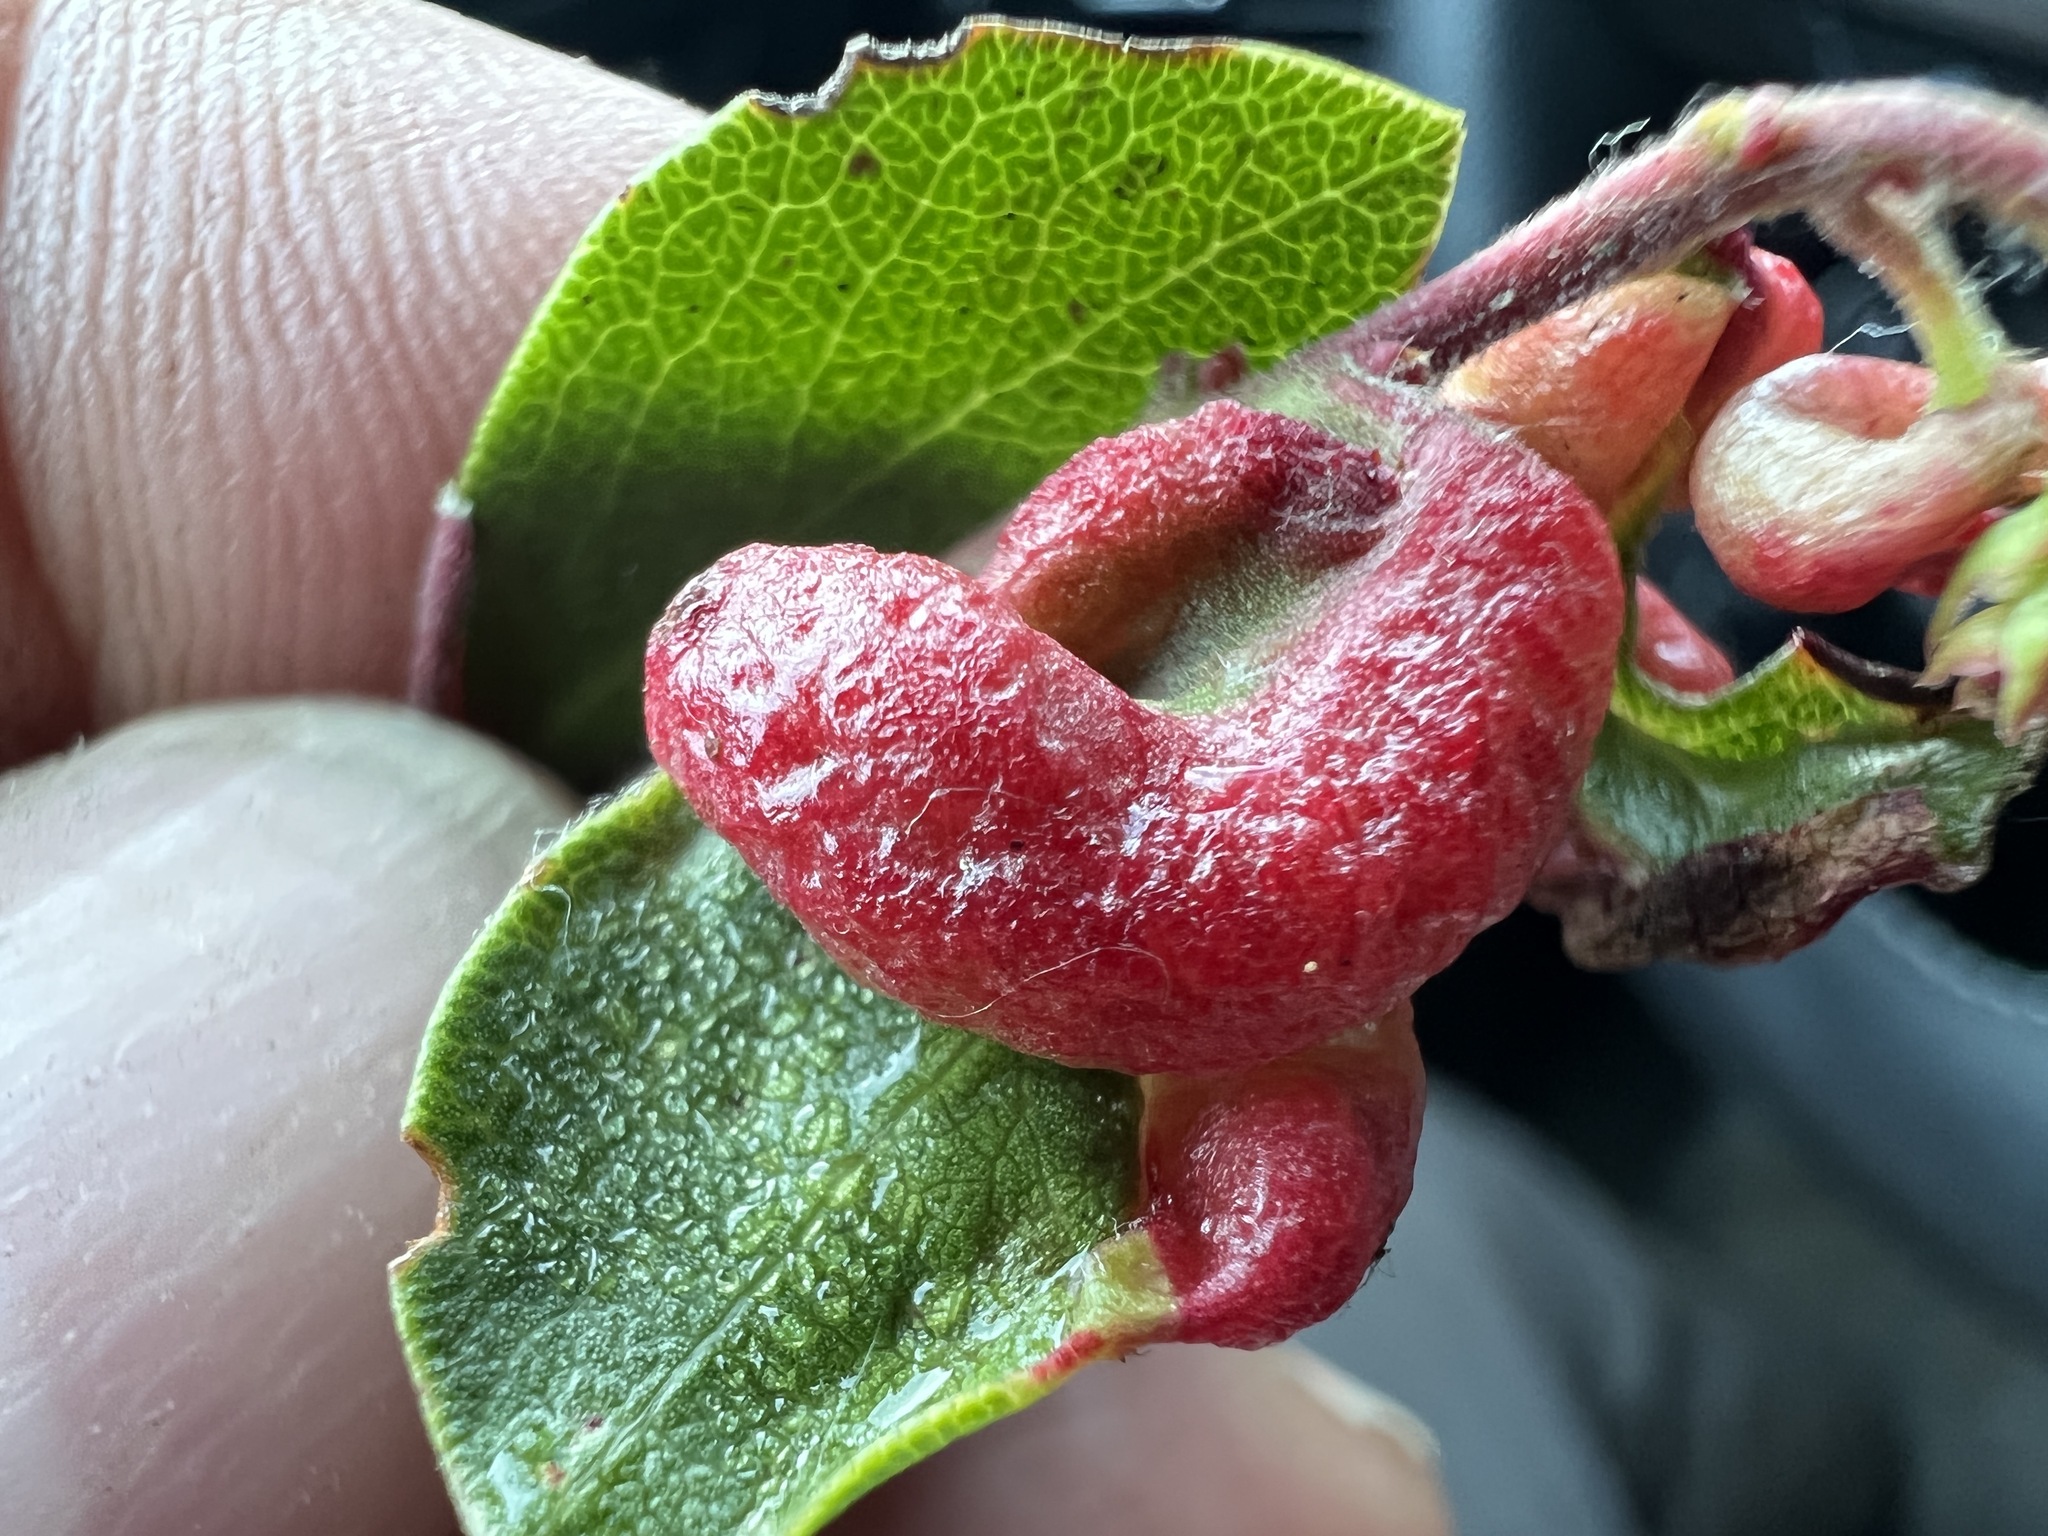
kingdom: Animalia
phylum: Arthropoda
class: Insecta
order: Hemiptera
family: Aphididae
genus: Tamalia
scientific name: Tamalia coweni
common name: Manzanita leafgall aphid
